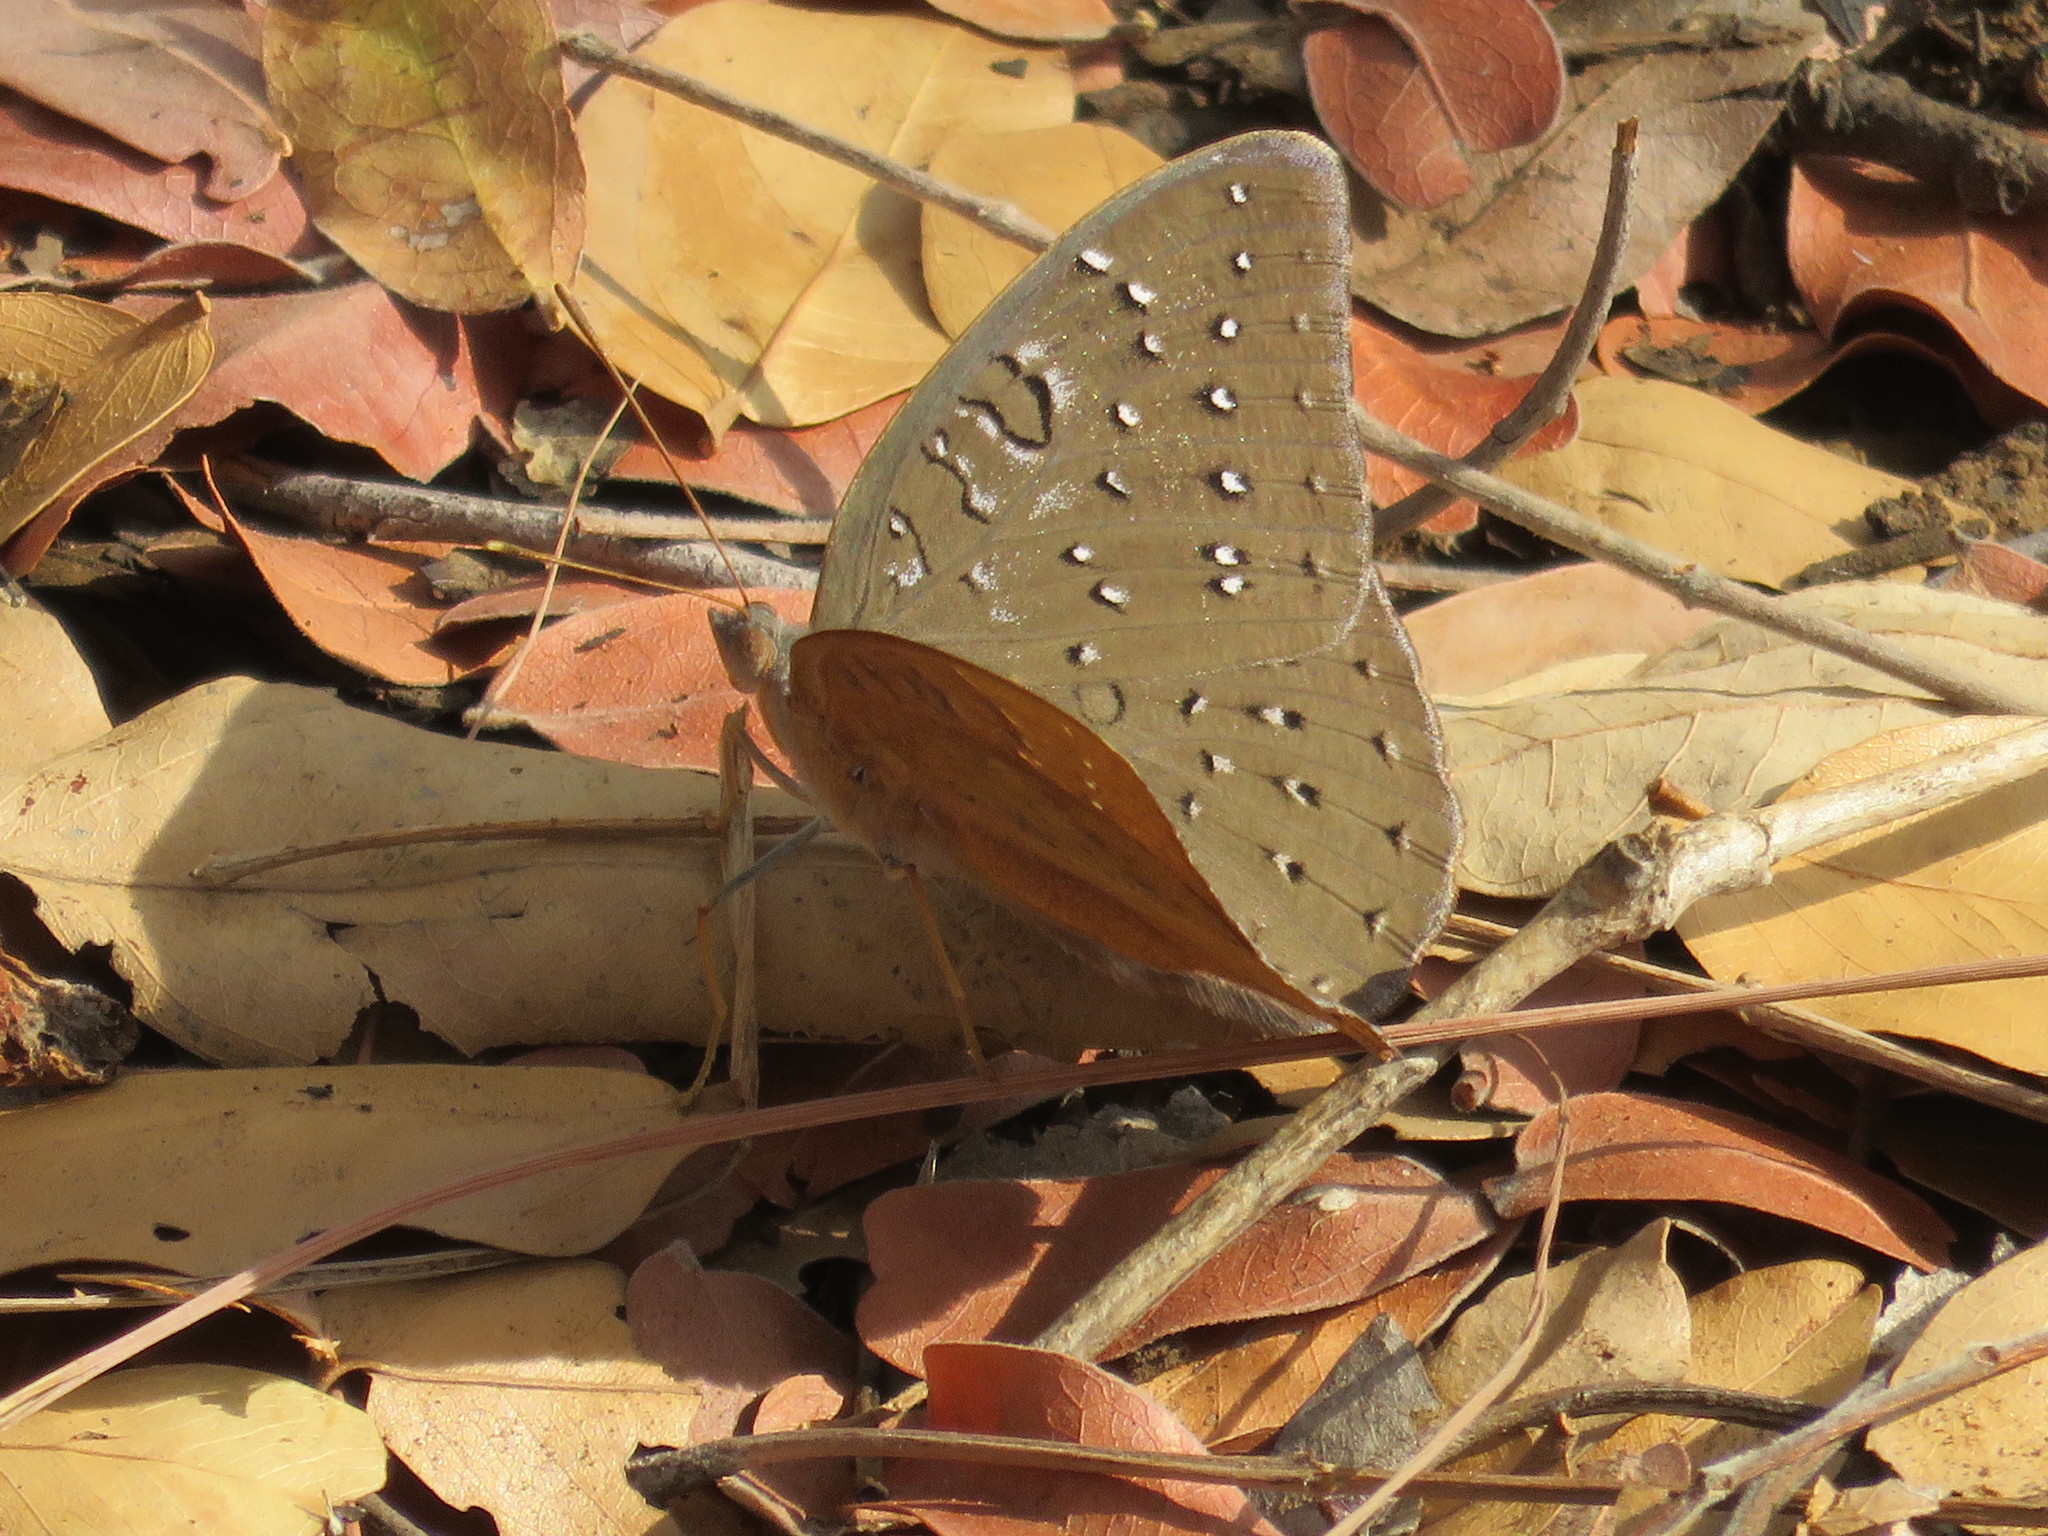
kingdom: Animalia
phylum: Arthropoda
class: Insecta
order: Lepidoptera
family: Nymphalidae
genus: Hamanumida
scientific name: Hamanumida daedalus
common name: Guinea-fowl butterfly
